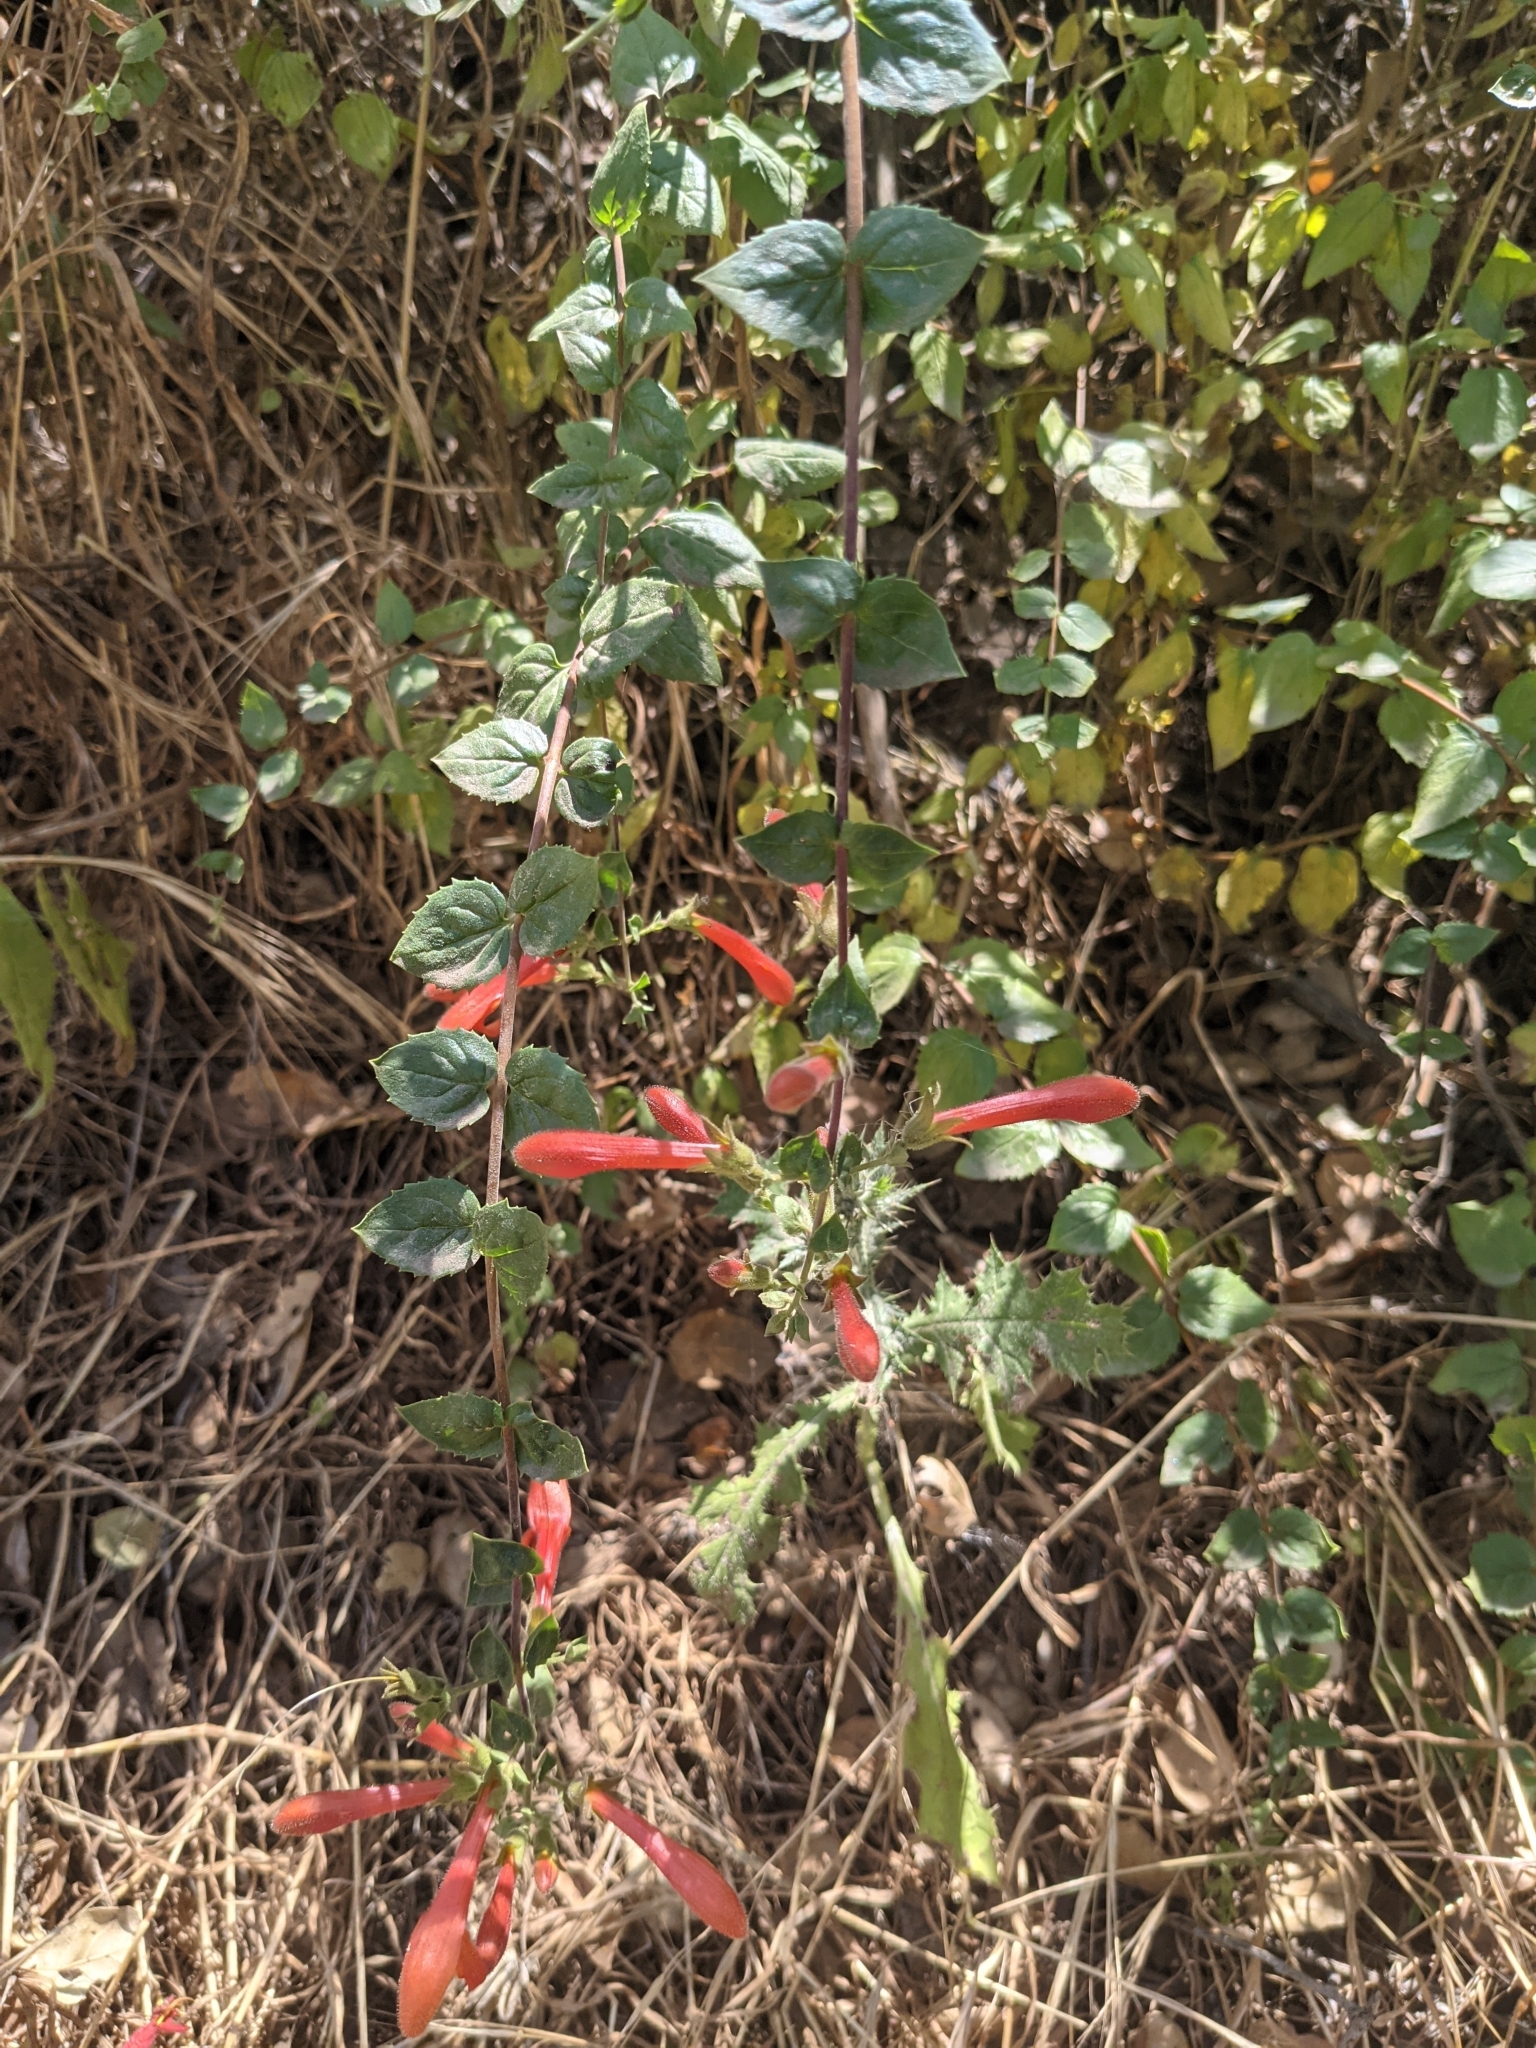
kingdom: Plantae
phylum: Tracheophyta
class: Magnoliopsida
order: Lamiales
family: Plantaginaceae
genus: Keckiella
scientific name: Keckiella cordifolia
